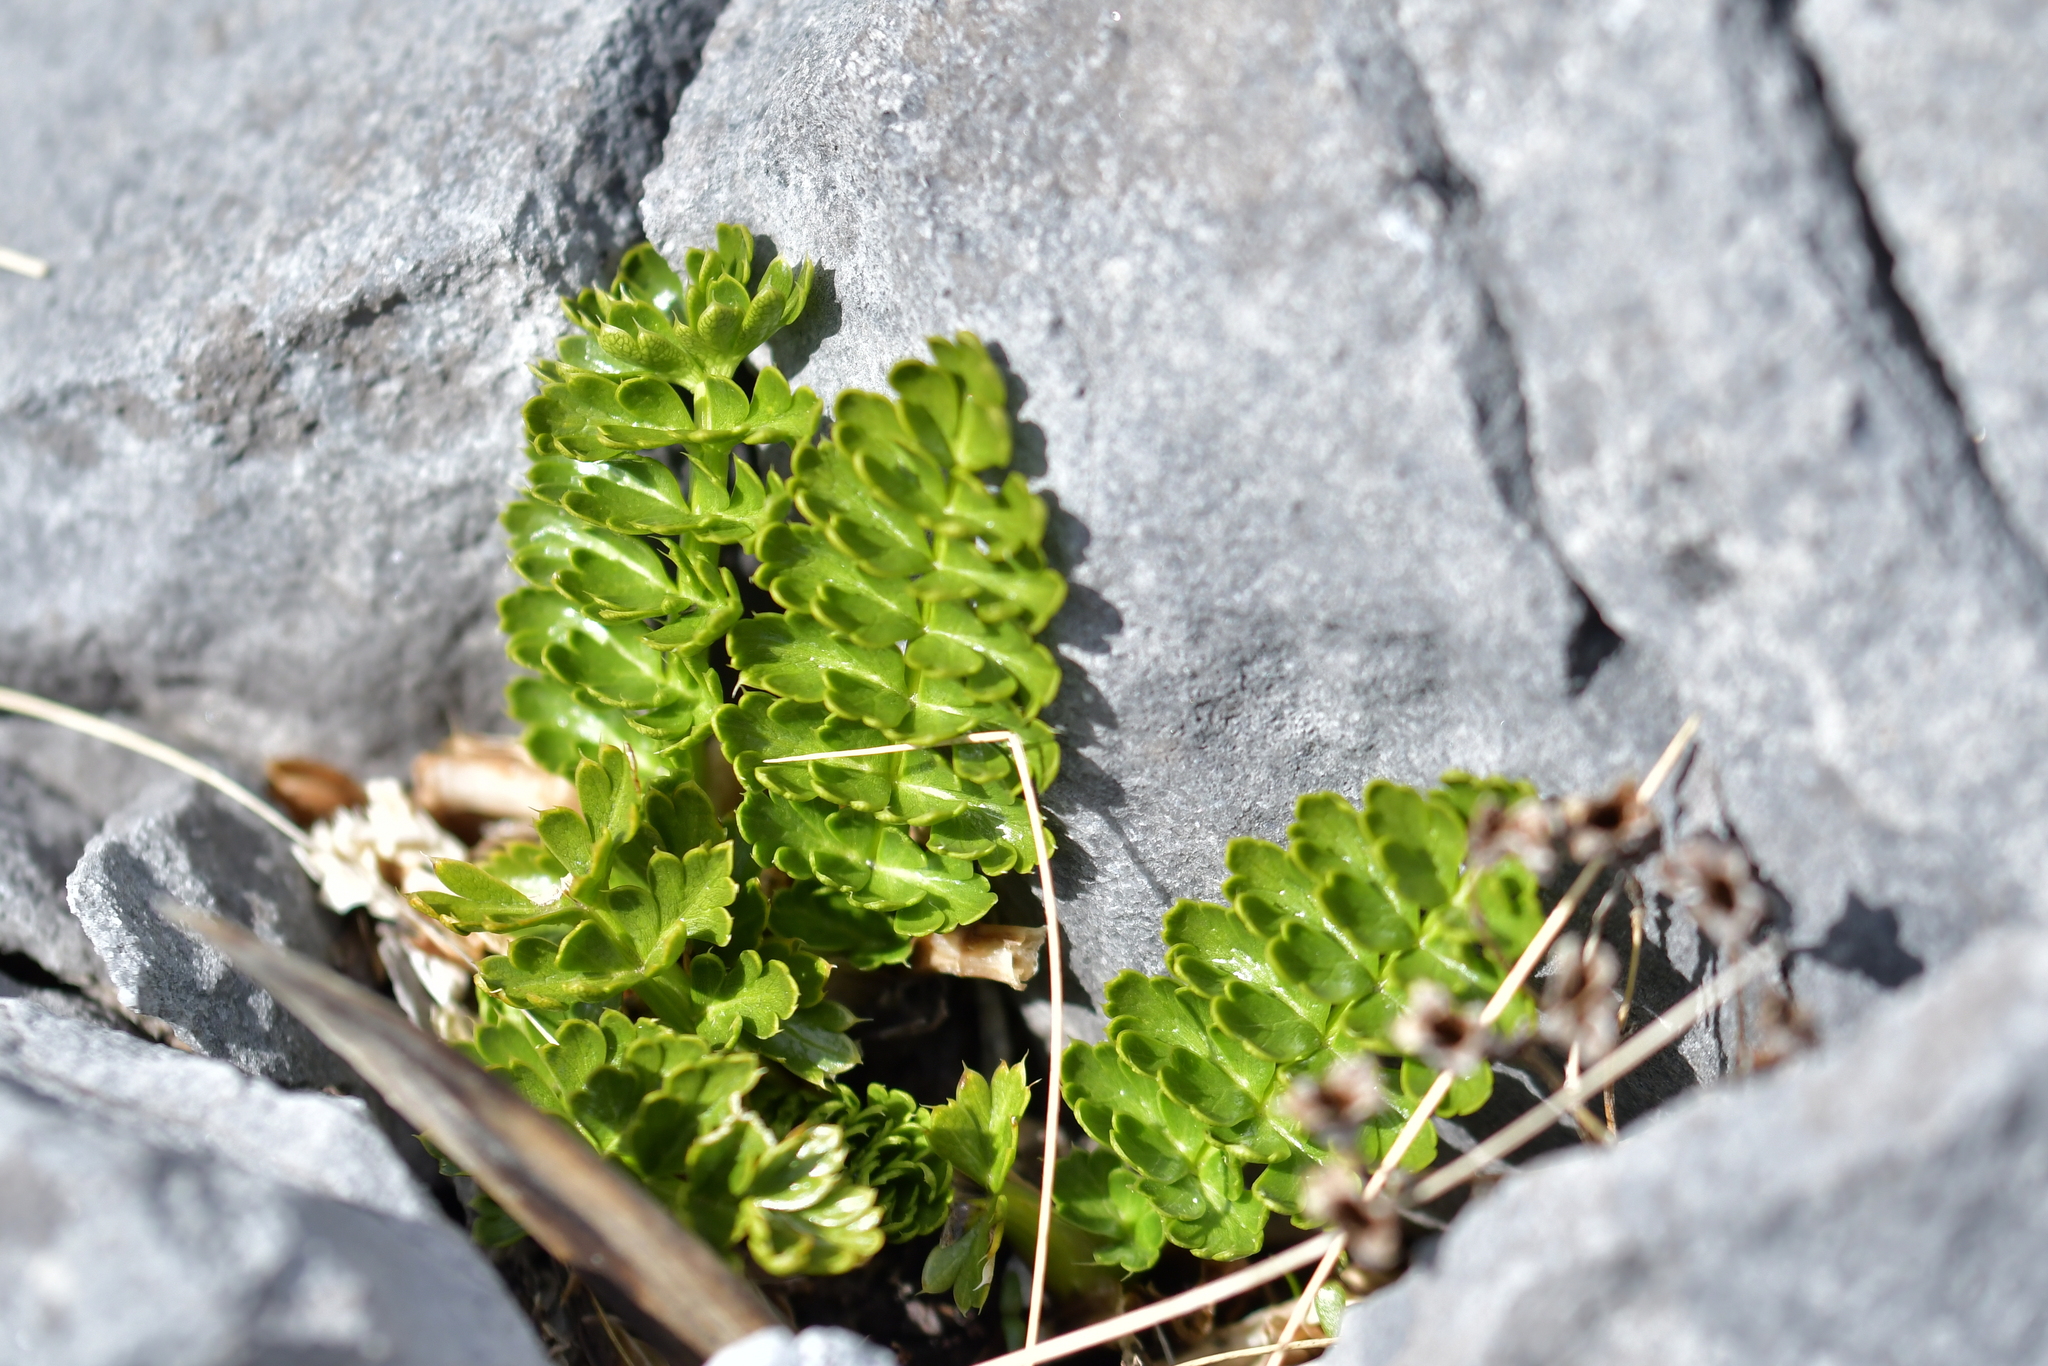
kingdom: Plantae
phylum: Tracheophyta
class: Magnoliopsida
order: Apiales
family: Apiaceae
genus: Anisotome
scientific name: Anisotome pilifera
